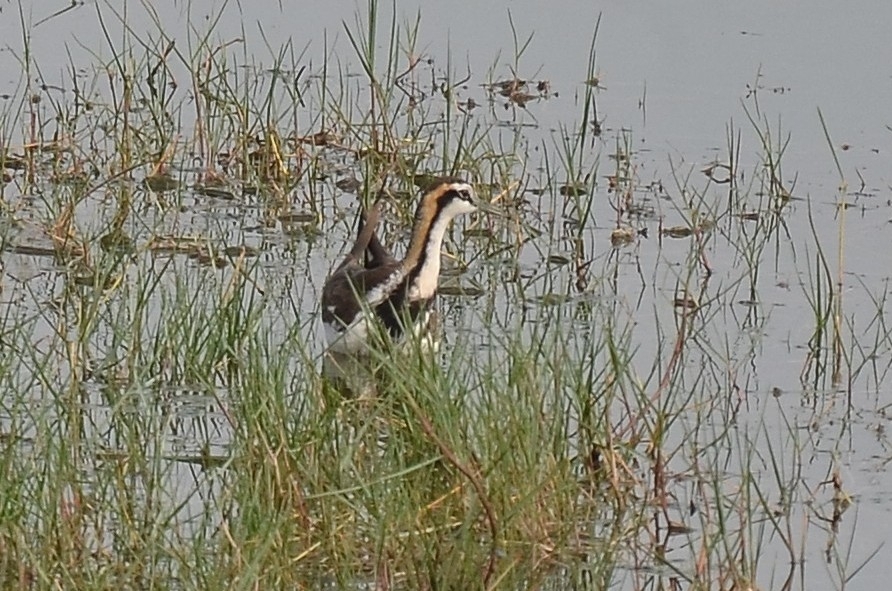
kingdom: Animalia
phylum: Chordata
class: Aves
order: Charadriiformes
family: Jacanidae
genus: Hydrophasianus
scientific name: Hydrophasianus chirurgus
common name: Pheasant-tailed jacana
